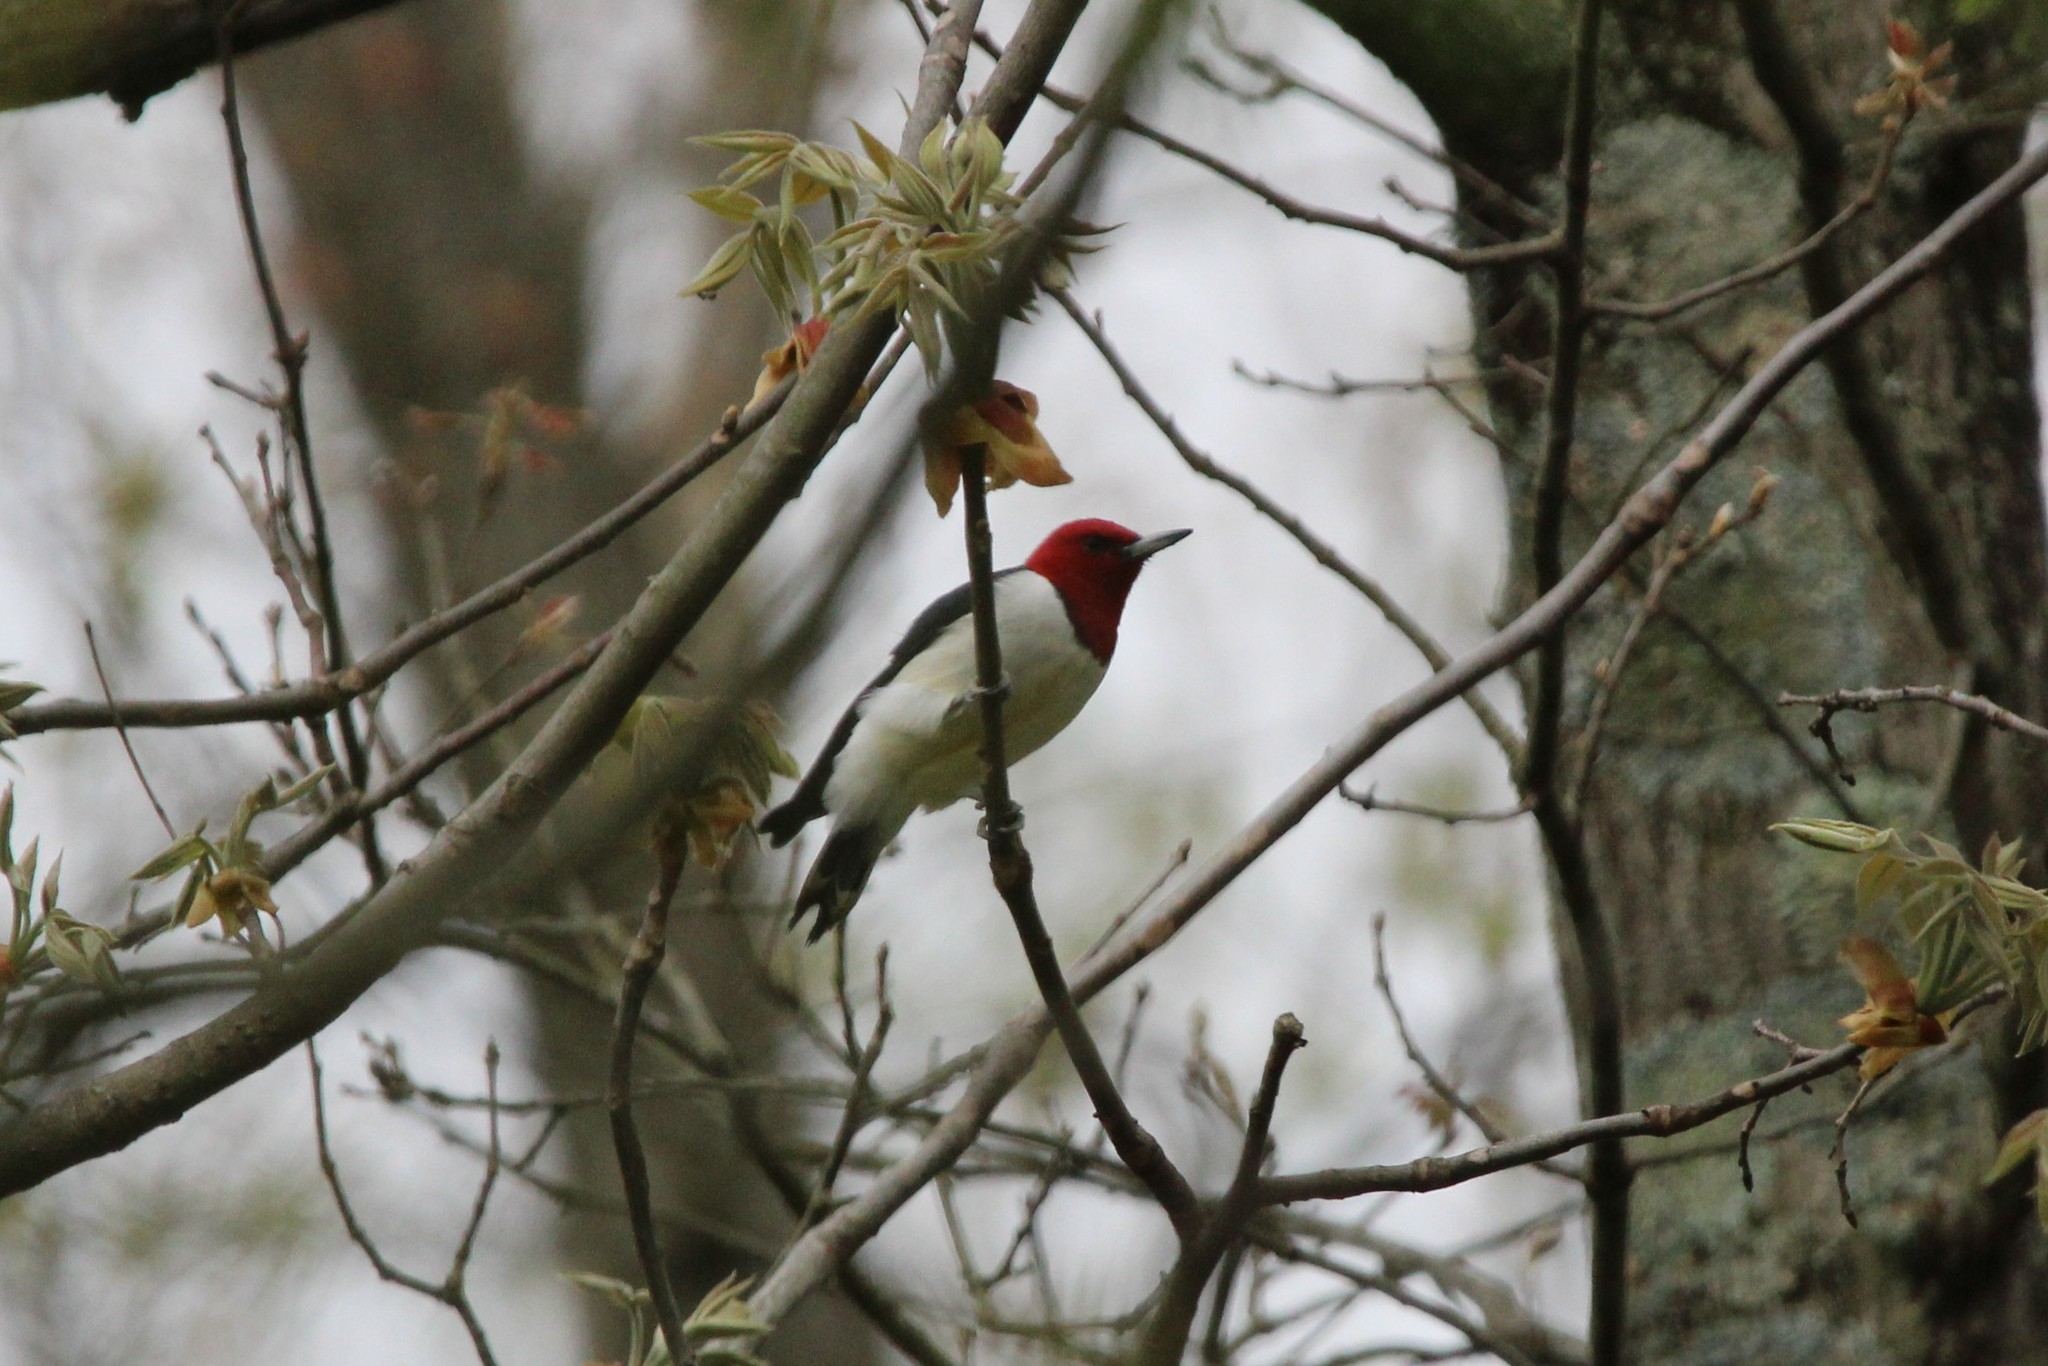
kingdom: Animalia
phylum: Chordata
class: Aves
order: Piciformes
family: Picidae
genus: Melanerpes
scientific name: Melanerpes erythrocephalus
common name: Red-headed woodpecker
